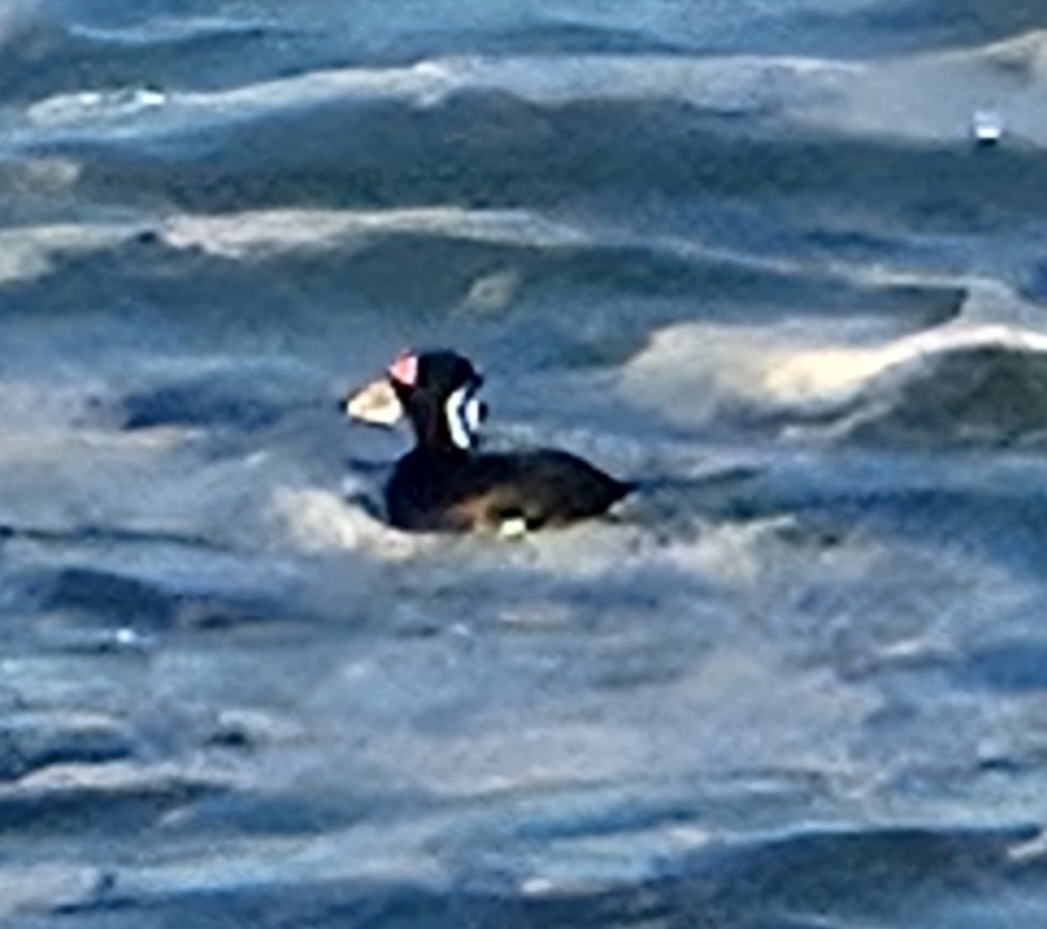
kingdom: Animalia
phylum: Chordata
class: Aves
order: Anseriformes
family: Anatidae
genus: Melanitta
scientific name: Melanitta perspicillata
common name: Surf scoter
